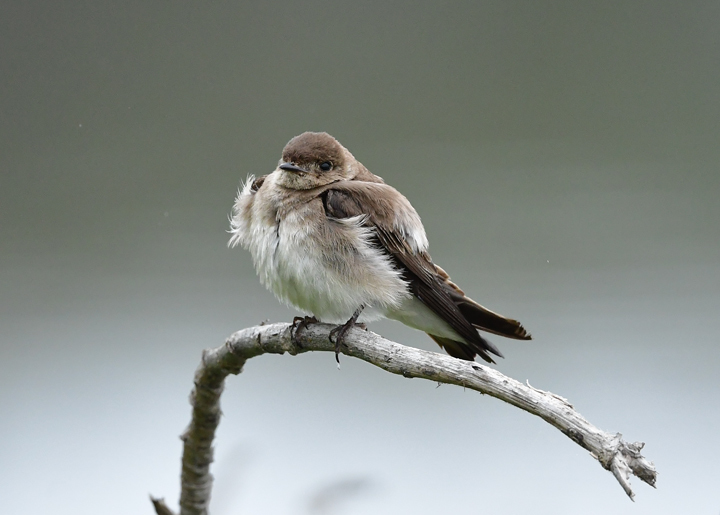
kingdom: Animalia
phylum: Chordata
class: Aves
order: Passeriformes
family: Hirundinidae
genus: Stelgidopteryx
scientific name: Stelgidopteryx serripennis
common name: Northern rough-winged swallow
